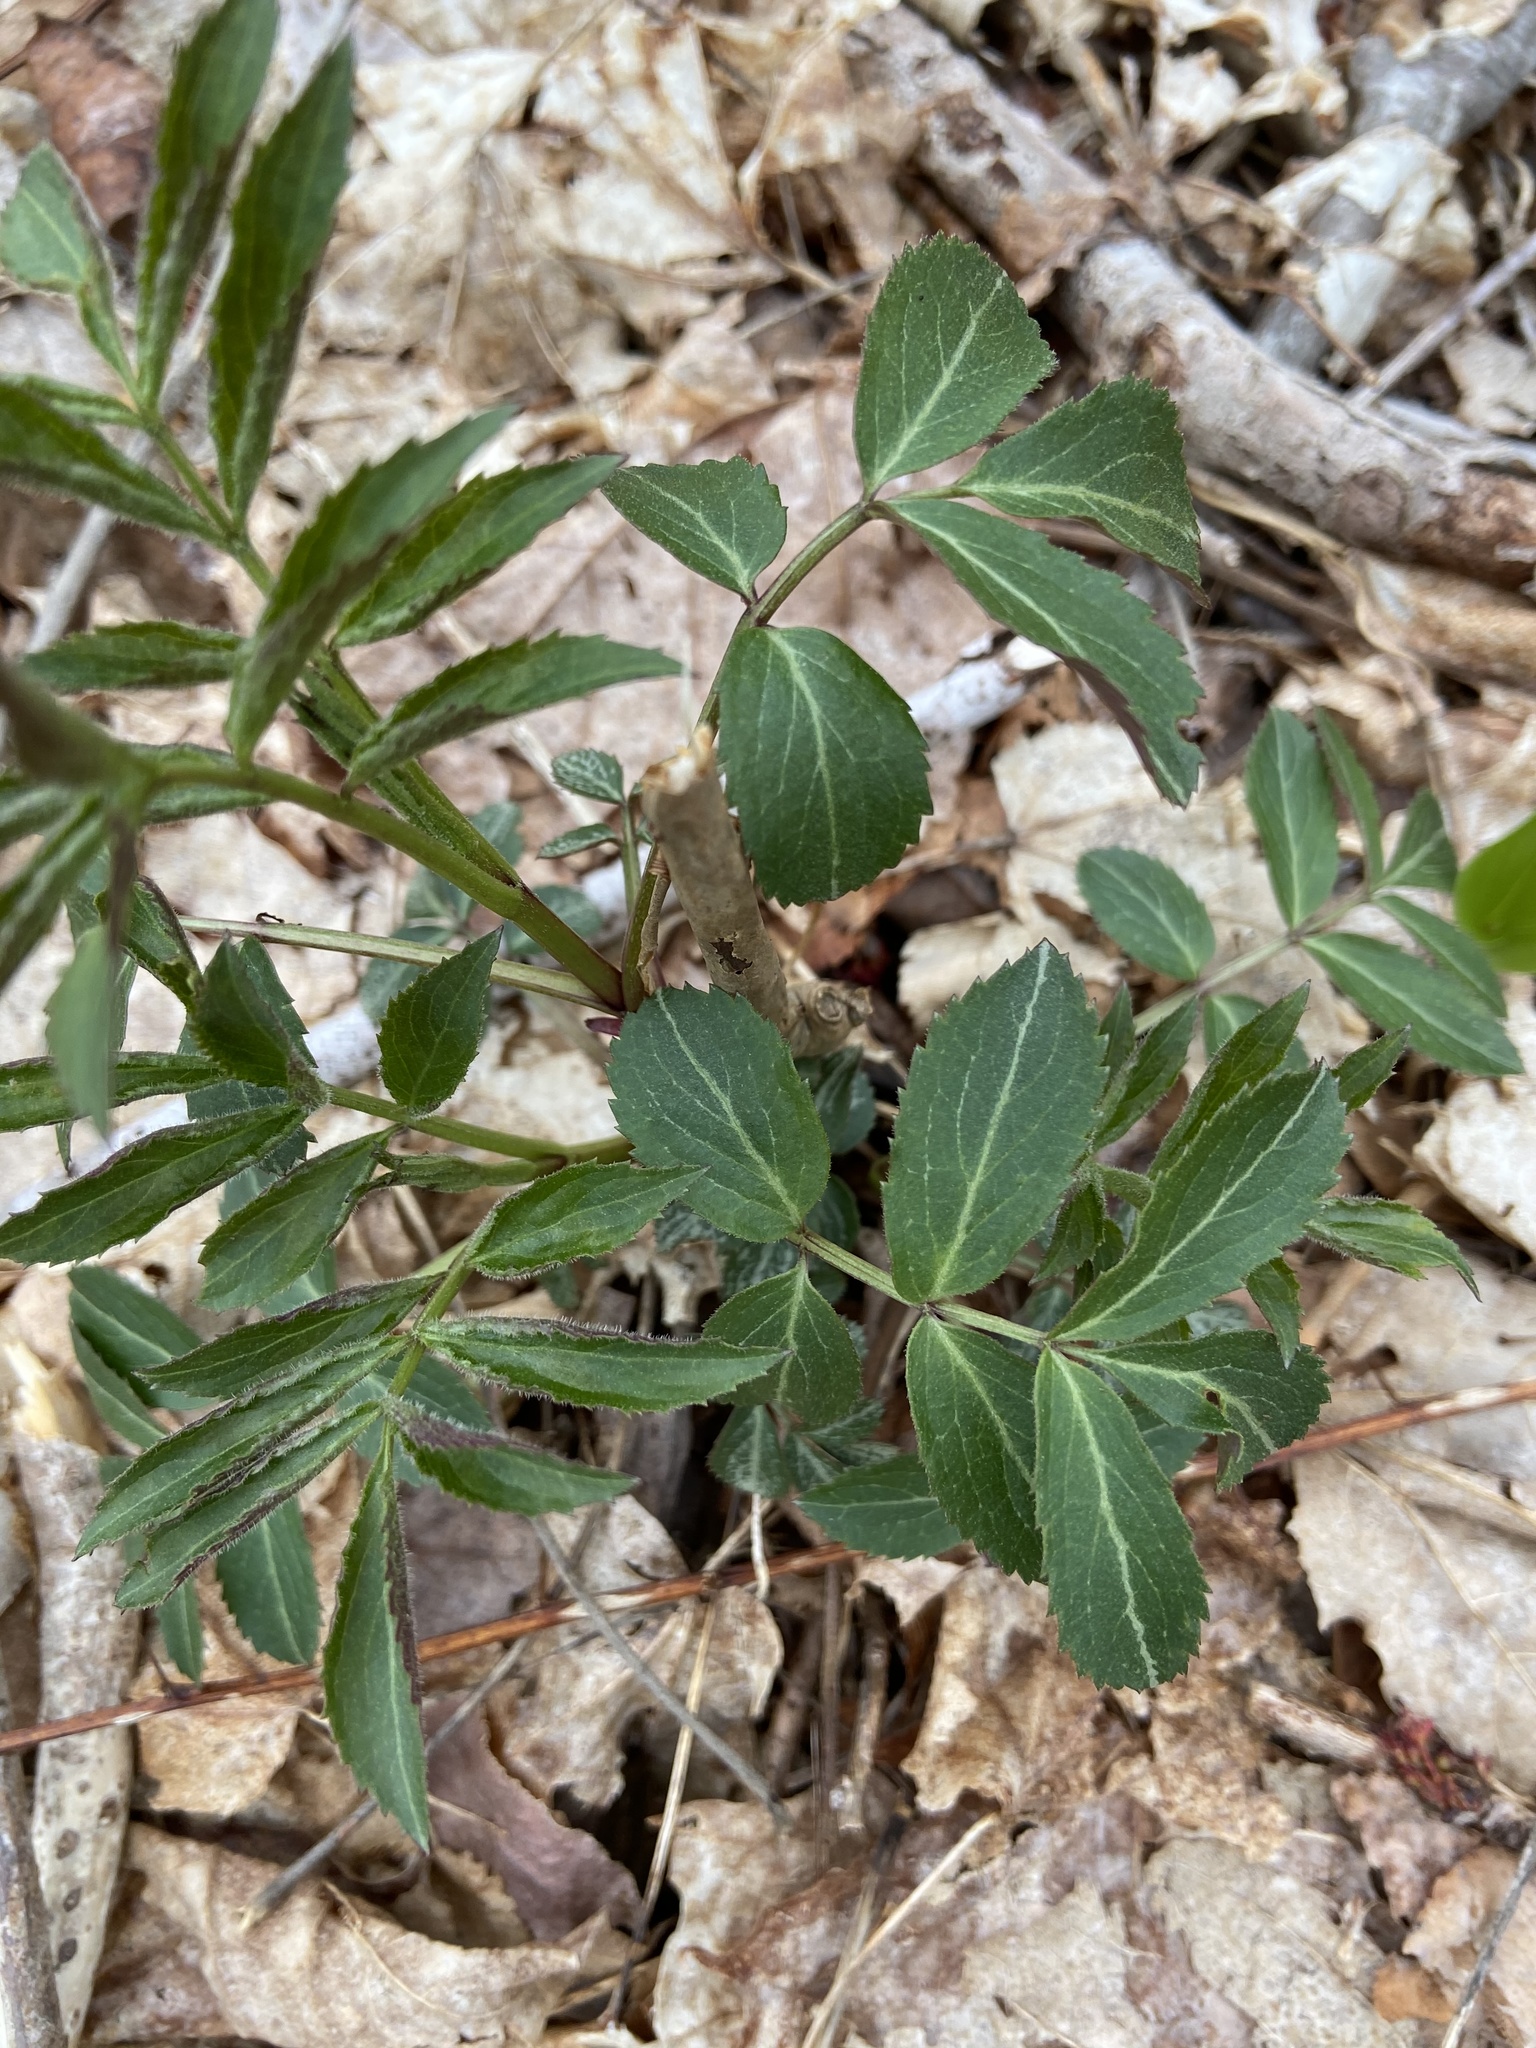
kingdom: Plantae
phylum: Tracheophyta
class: Magnoliopsida
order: Dipsacales
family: Viburnaceae
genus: Sambucus
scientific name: Sambucus canadensis
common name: American elder
